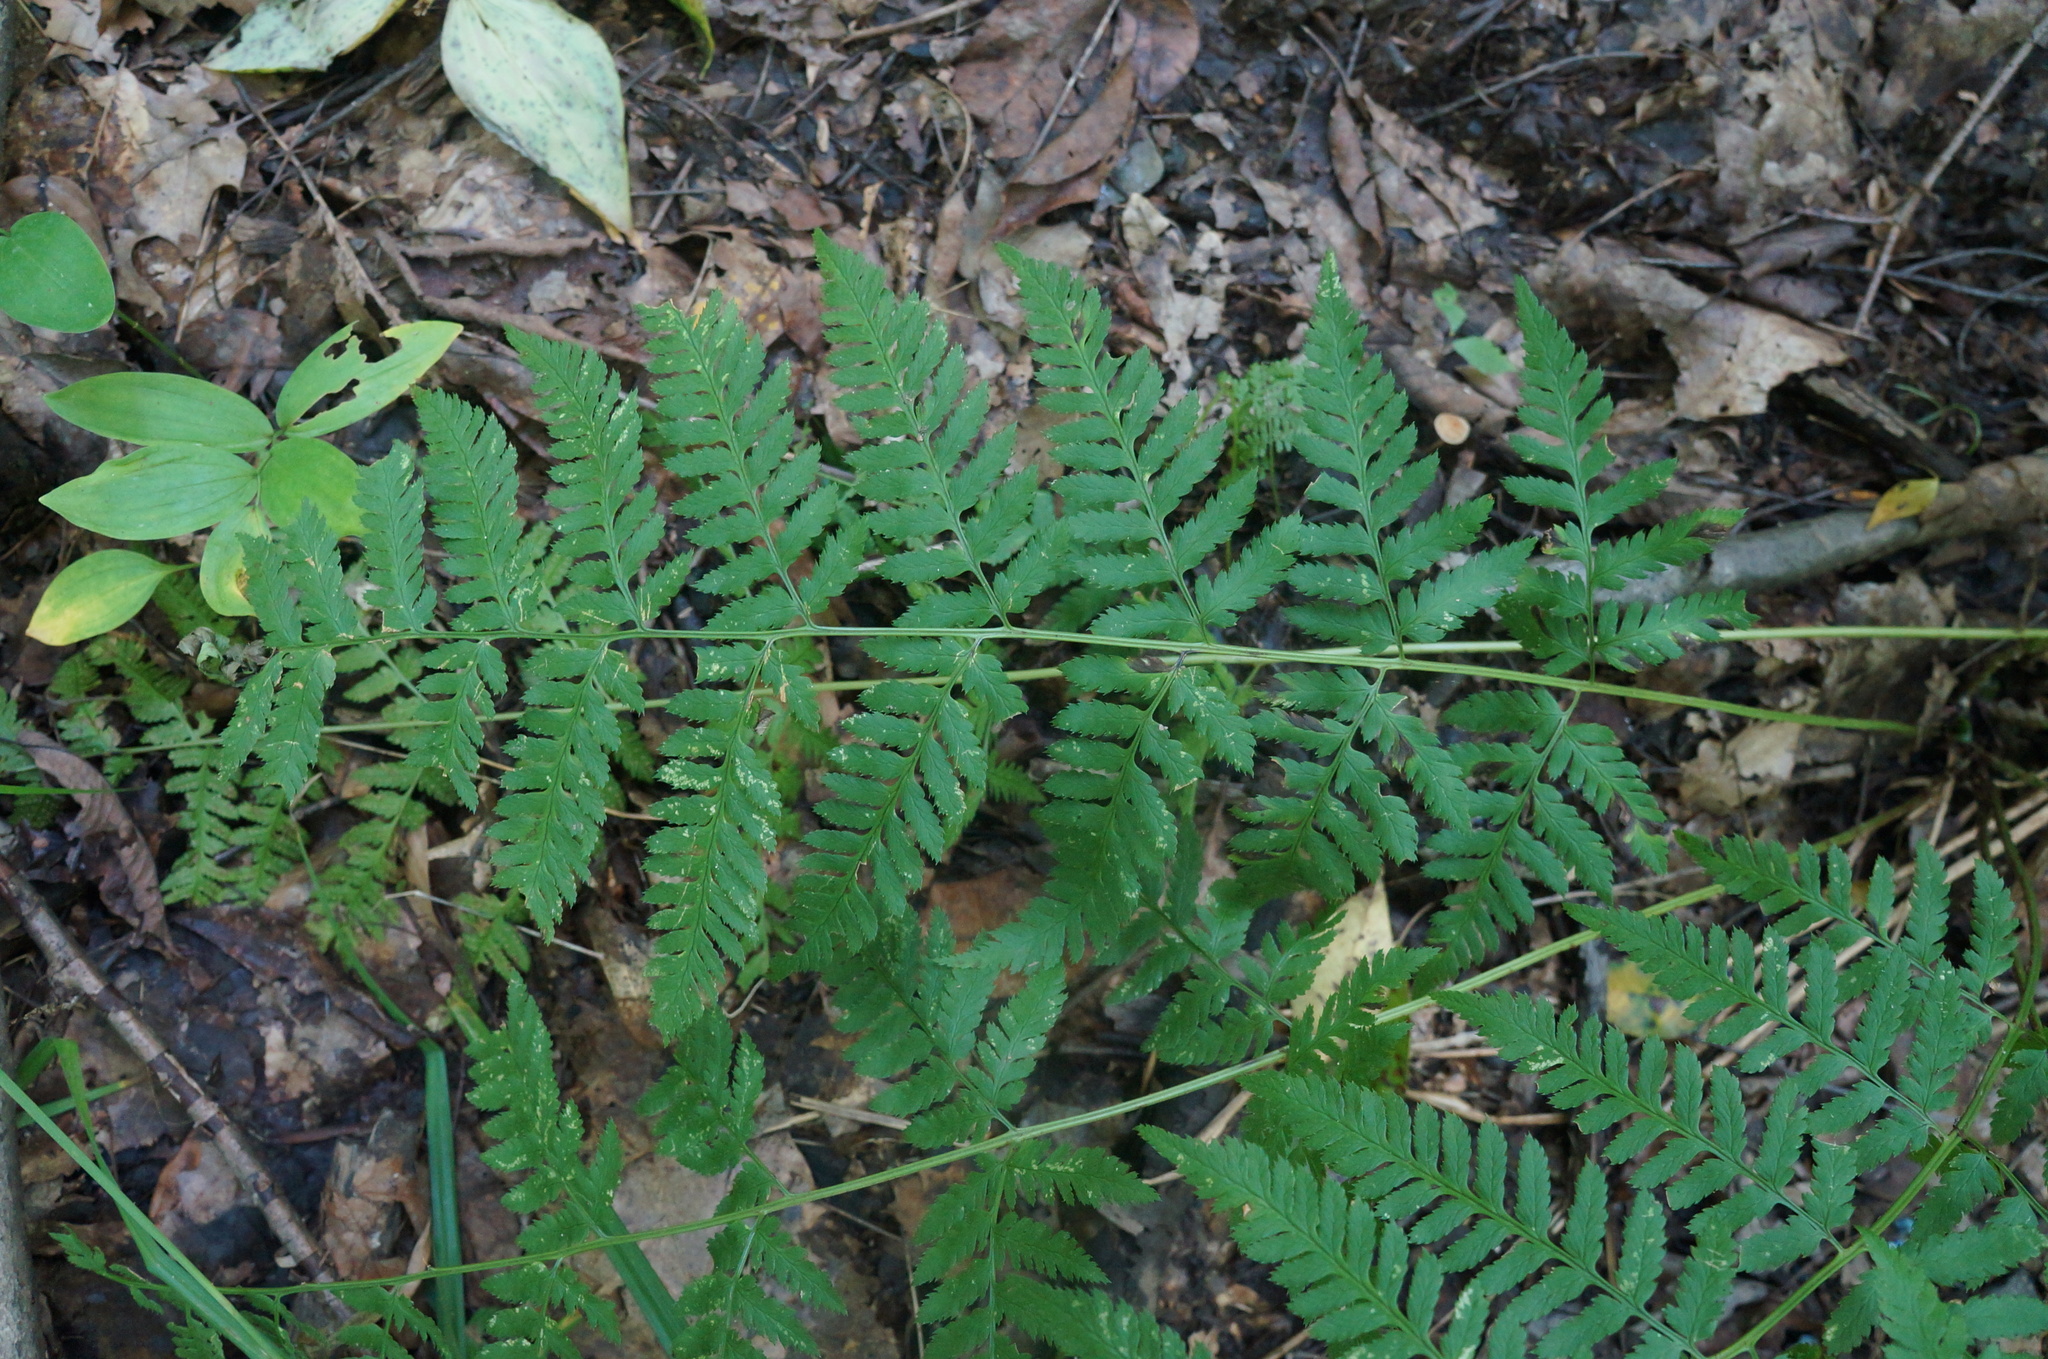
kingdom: Plantae
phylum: Tracheophyta
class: Polypodiopsida
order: Polypodiales
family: Dryopteridaceae
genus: Dryopteris
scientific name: Dryopteris carthusiana
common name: Narrow buckler-fern
